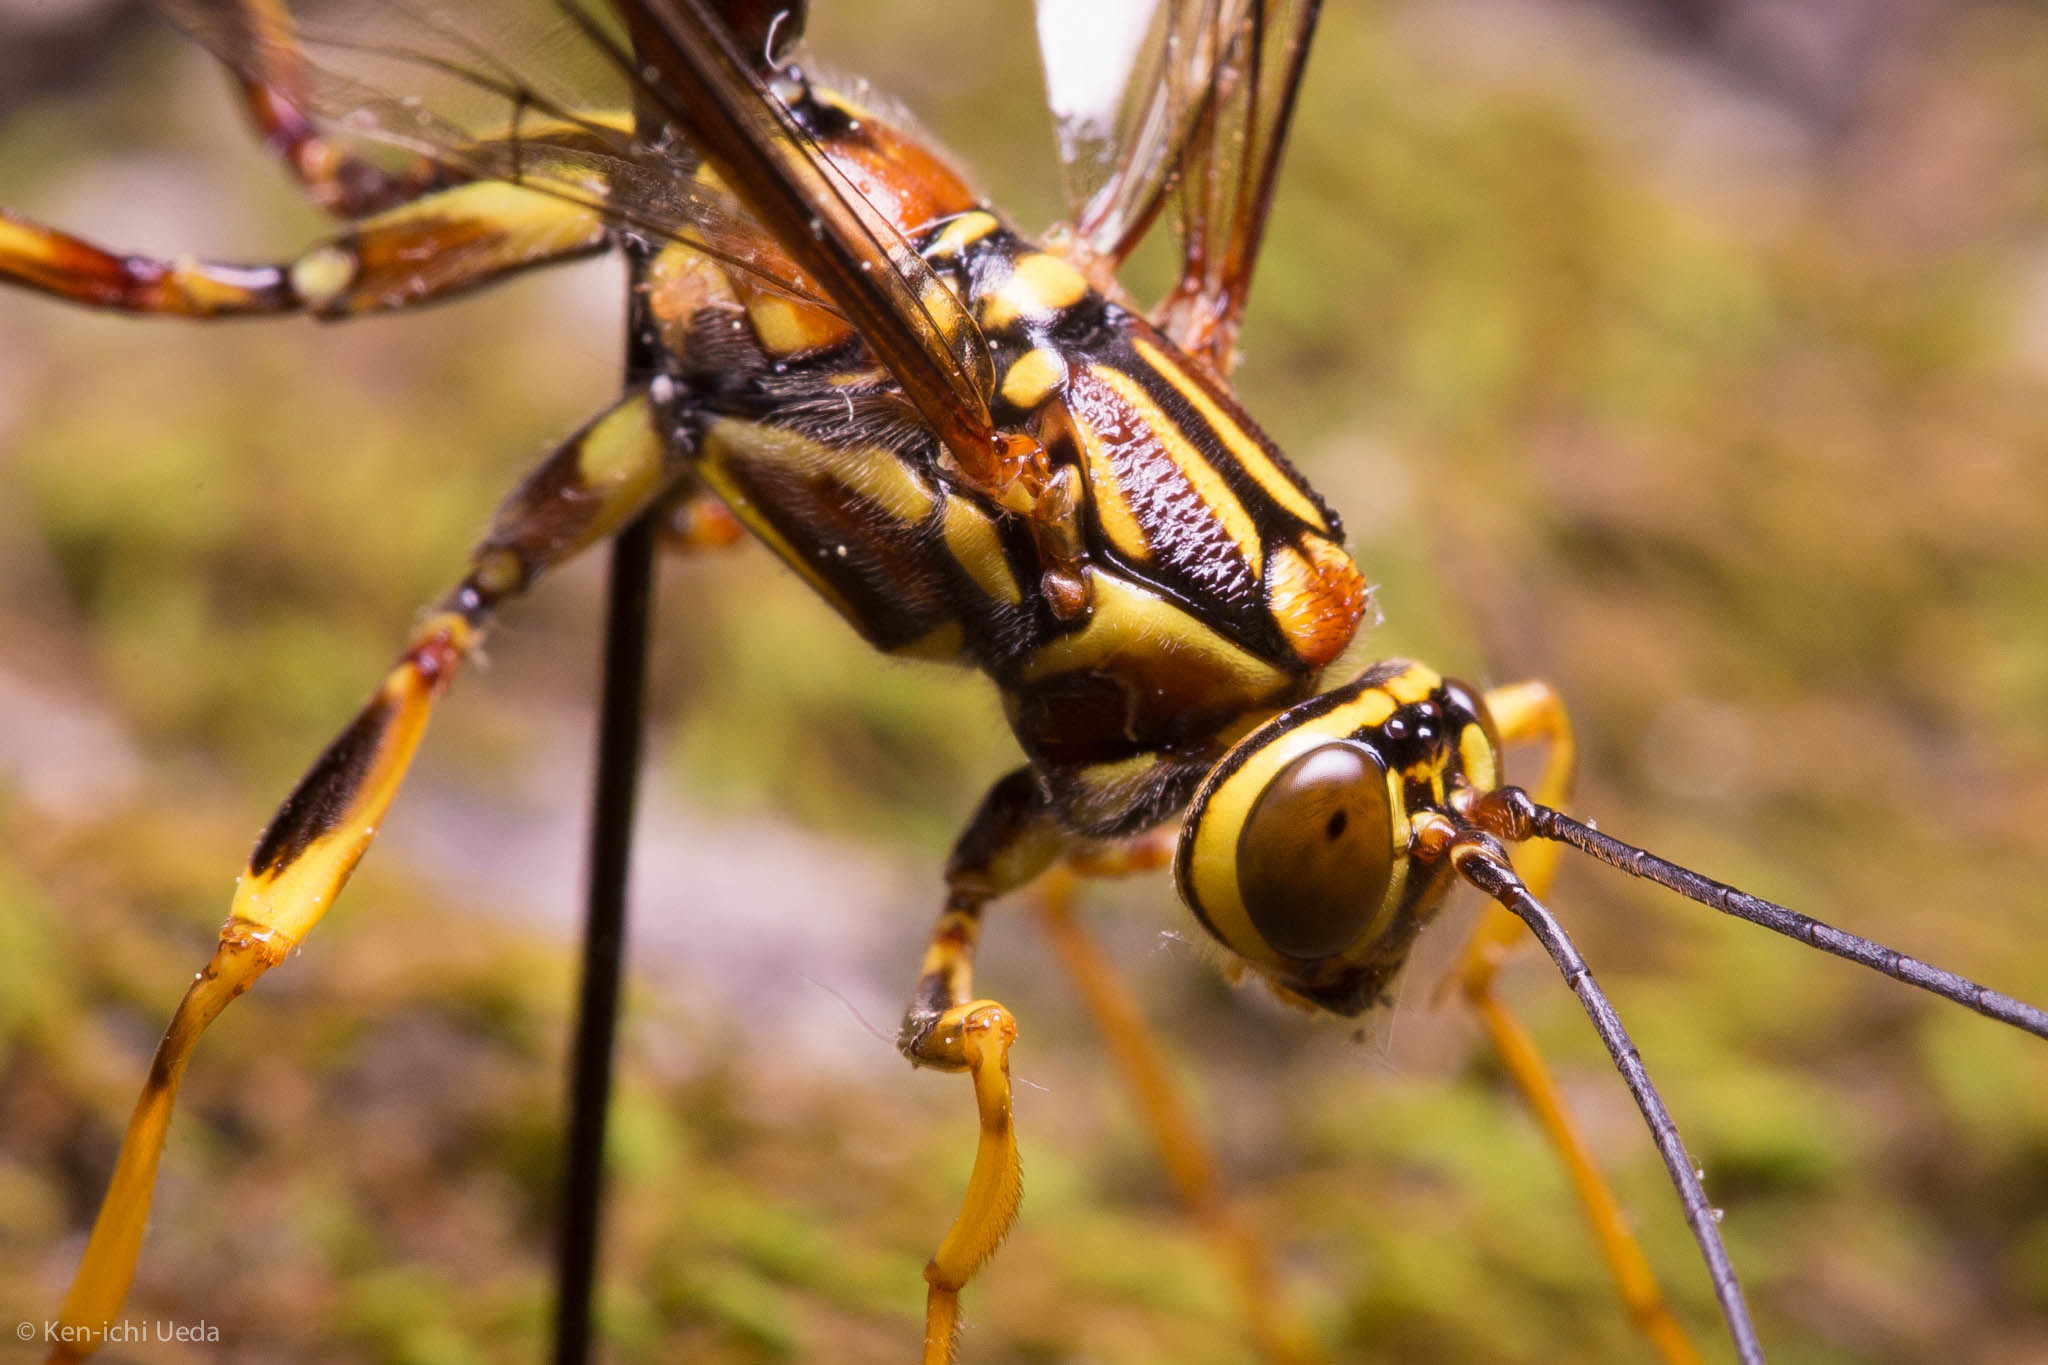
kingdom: Animalia
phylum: Arthropoda
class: Insecta
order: Hymenoptera
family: Ichneumonidae
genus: Megarhyssa
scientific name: Megarhyssa macrura
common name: Long-tailed giant ichneumonid wasp
